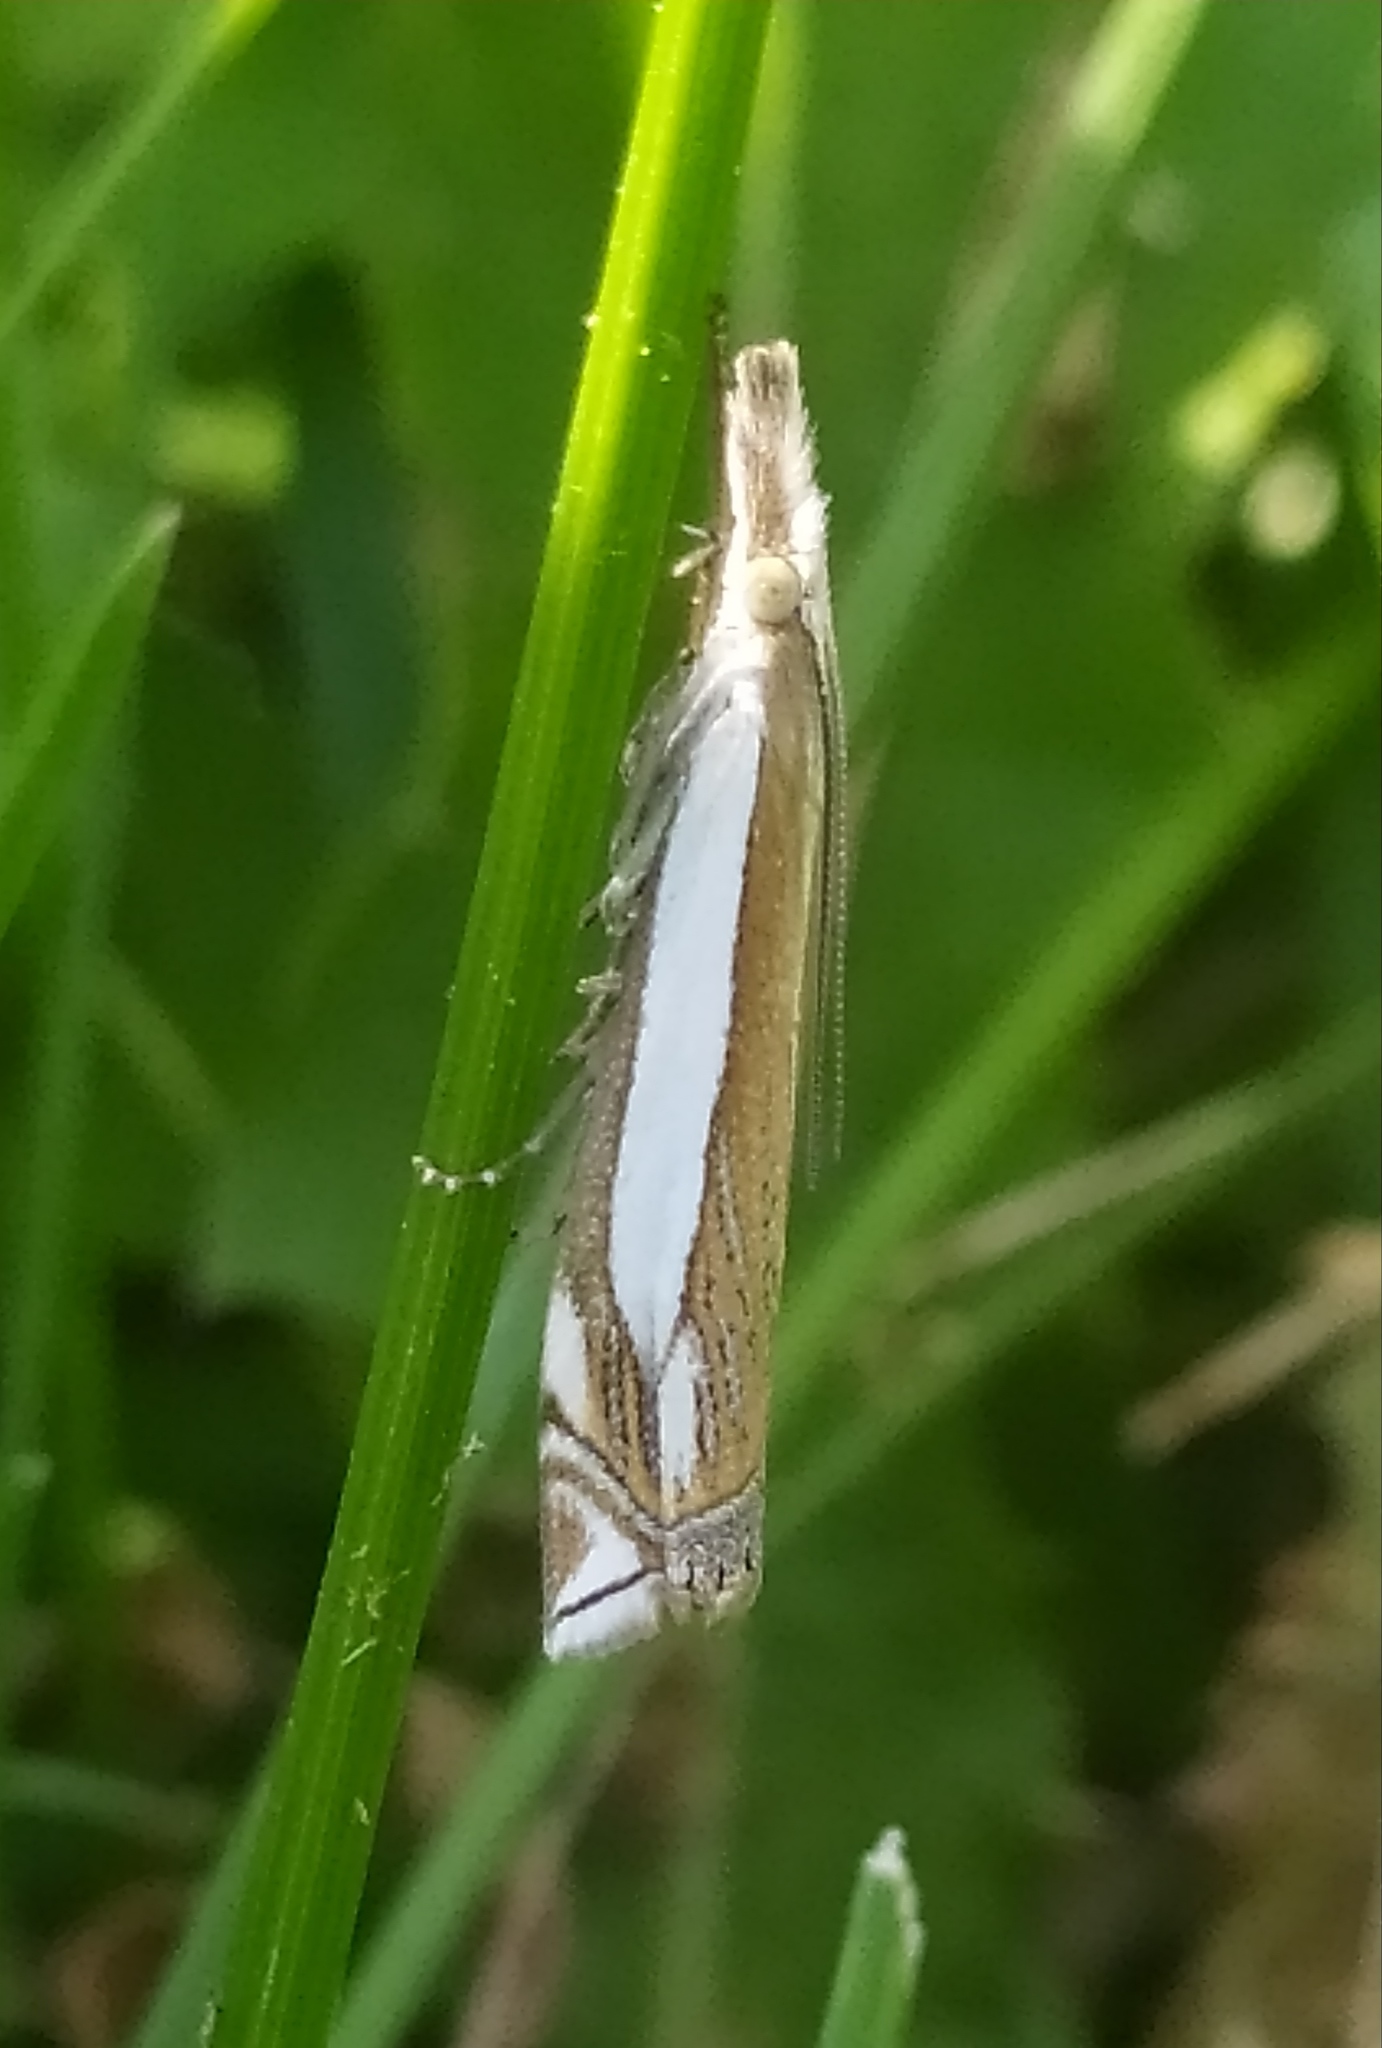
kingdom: Animalia
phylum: Arthropoda
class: Insecta
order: Lepidoptera
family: Crambidae
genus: Crambus
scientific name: Crambus pascuella
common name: Inlaid grass-veneer
